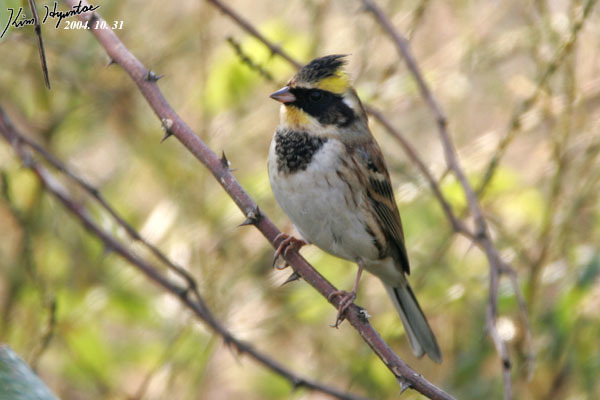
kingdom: Animalia
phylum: Chordata
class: Aves
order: Passeriformes
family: Emberizidae
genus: Emberiza
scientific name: Emberiza elegans
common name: Yellow-throated bunting
